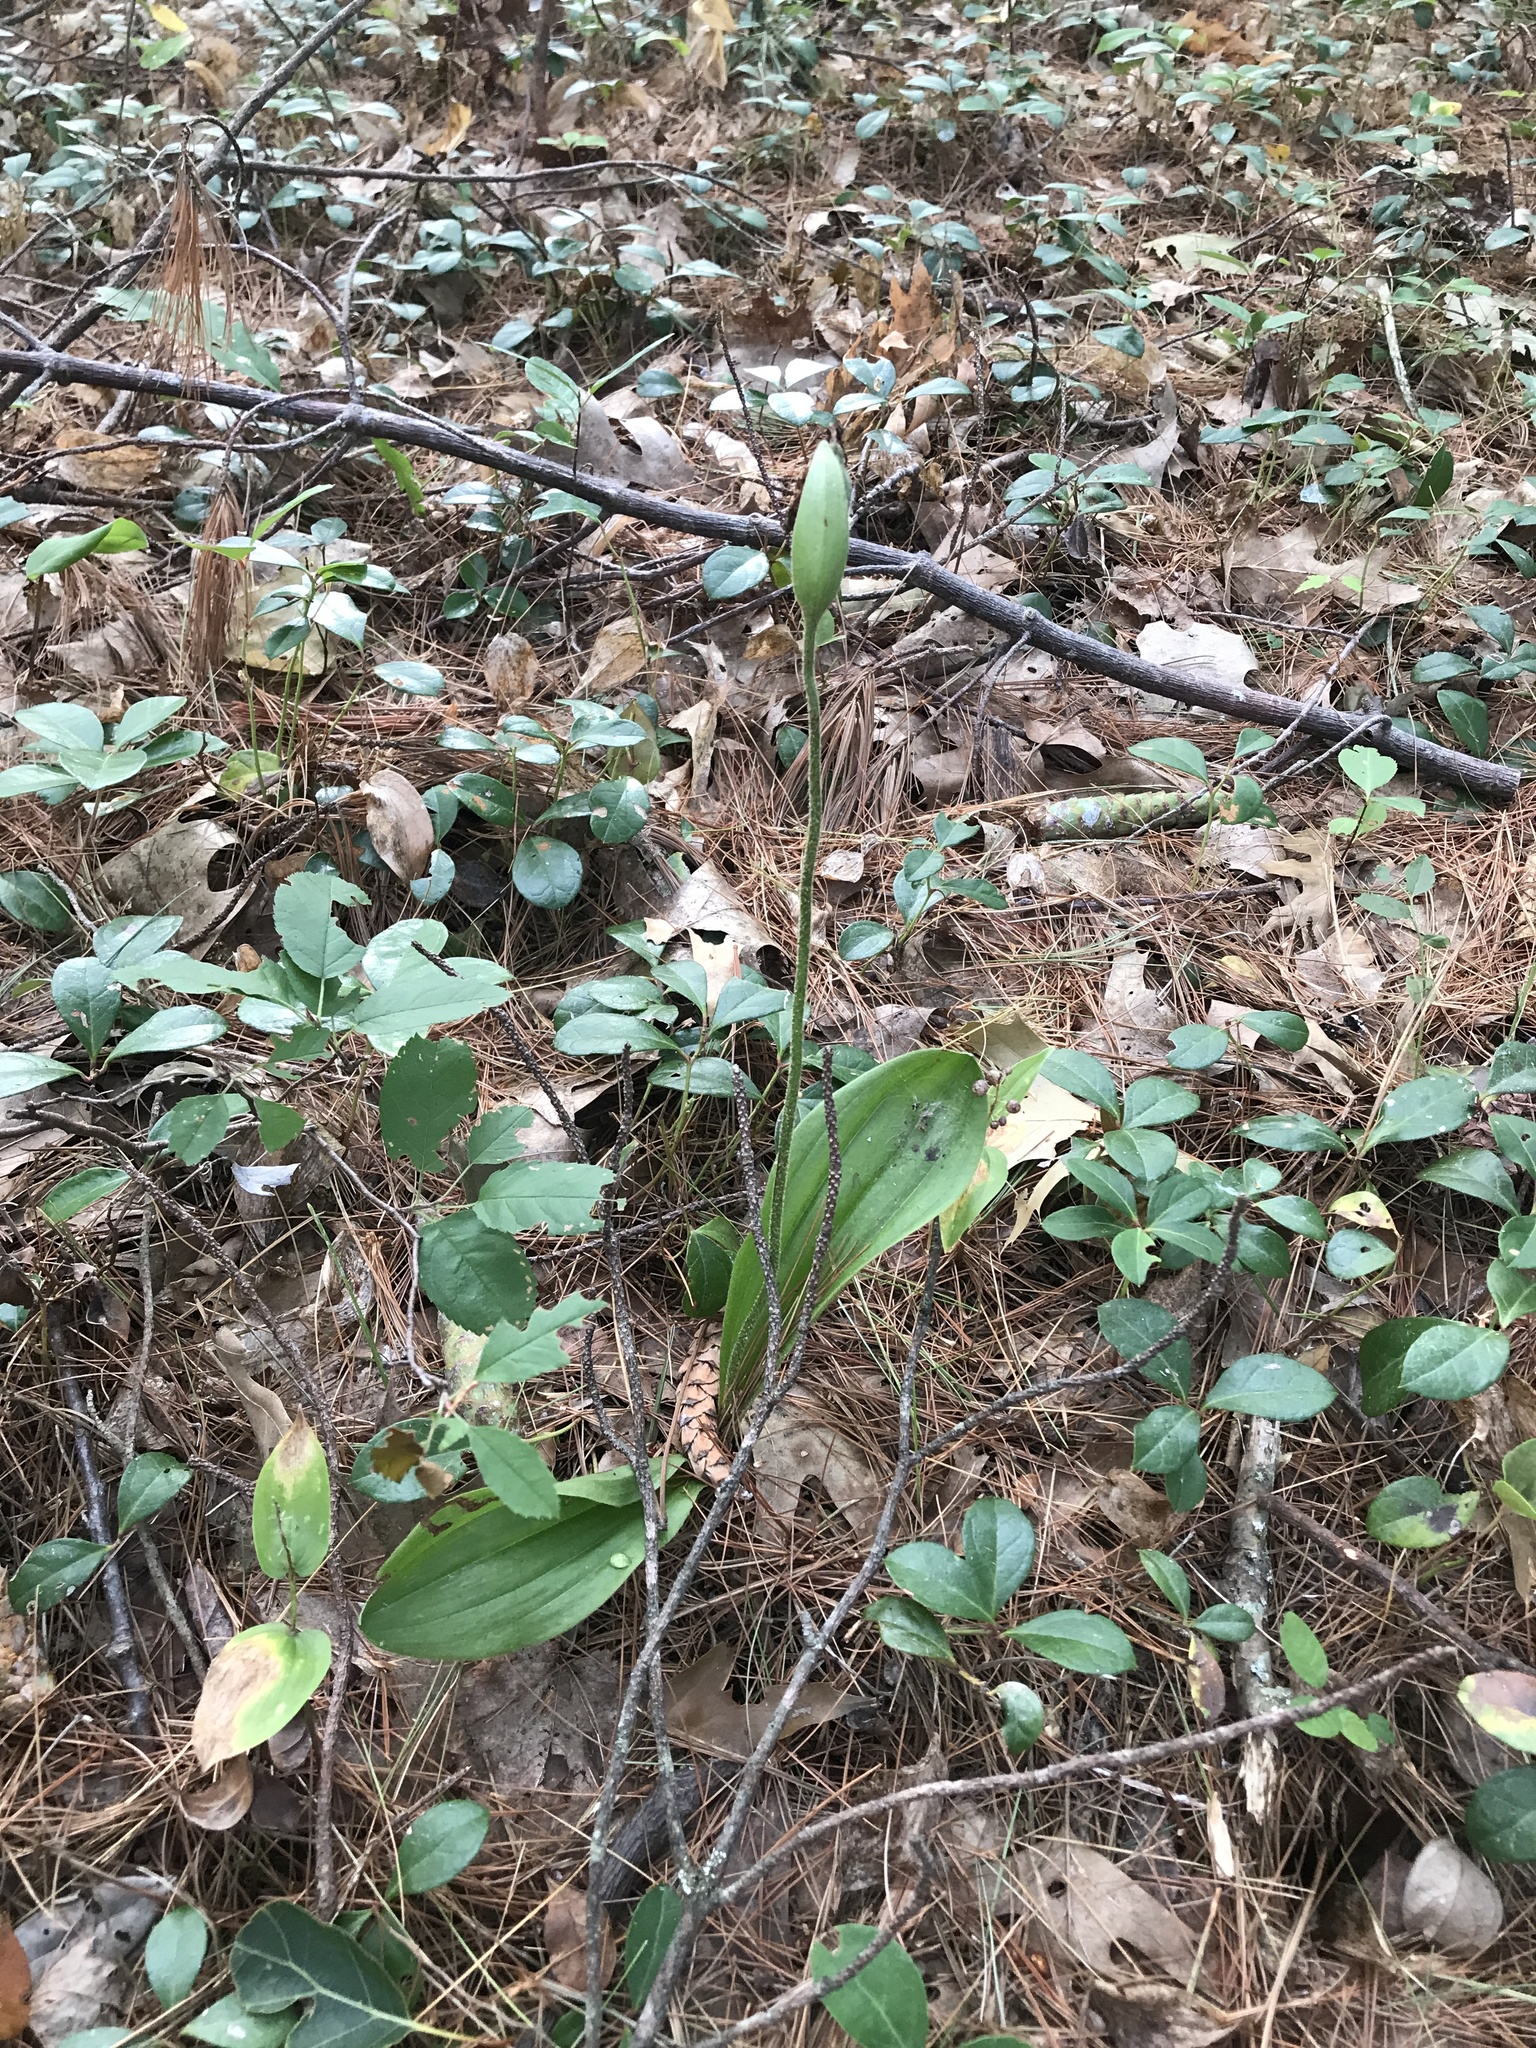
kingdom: Plantae
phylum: Tracheophyta
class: Liliopsida
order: Asparagales
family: Orchidaceae
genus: Cypripedium
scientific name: Cypripedium acaule
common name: Pink lady's-slipper
